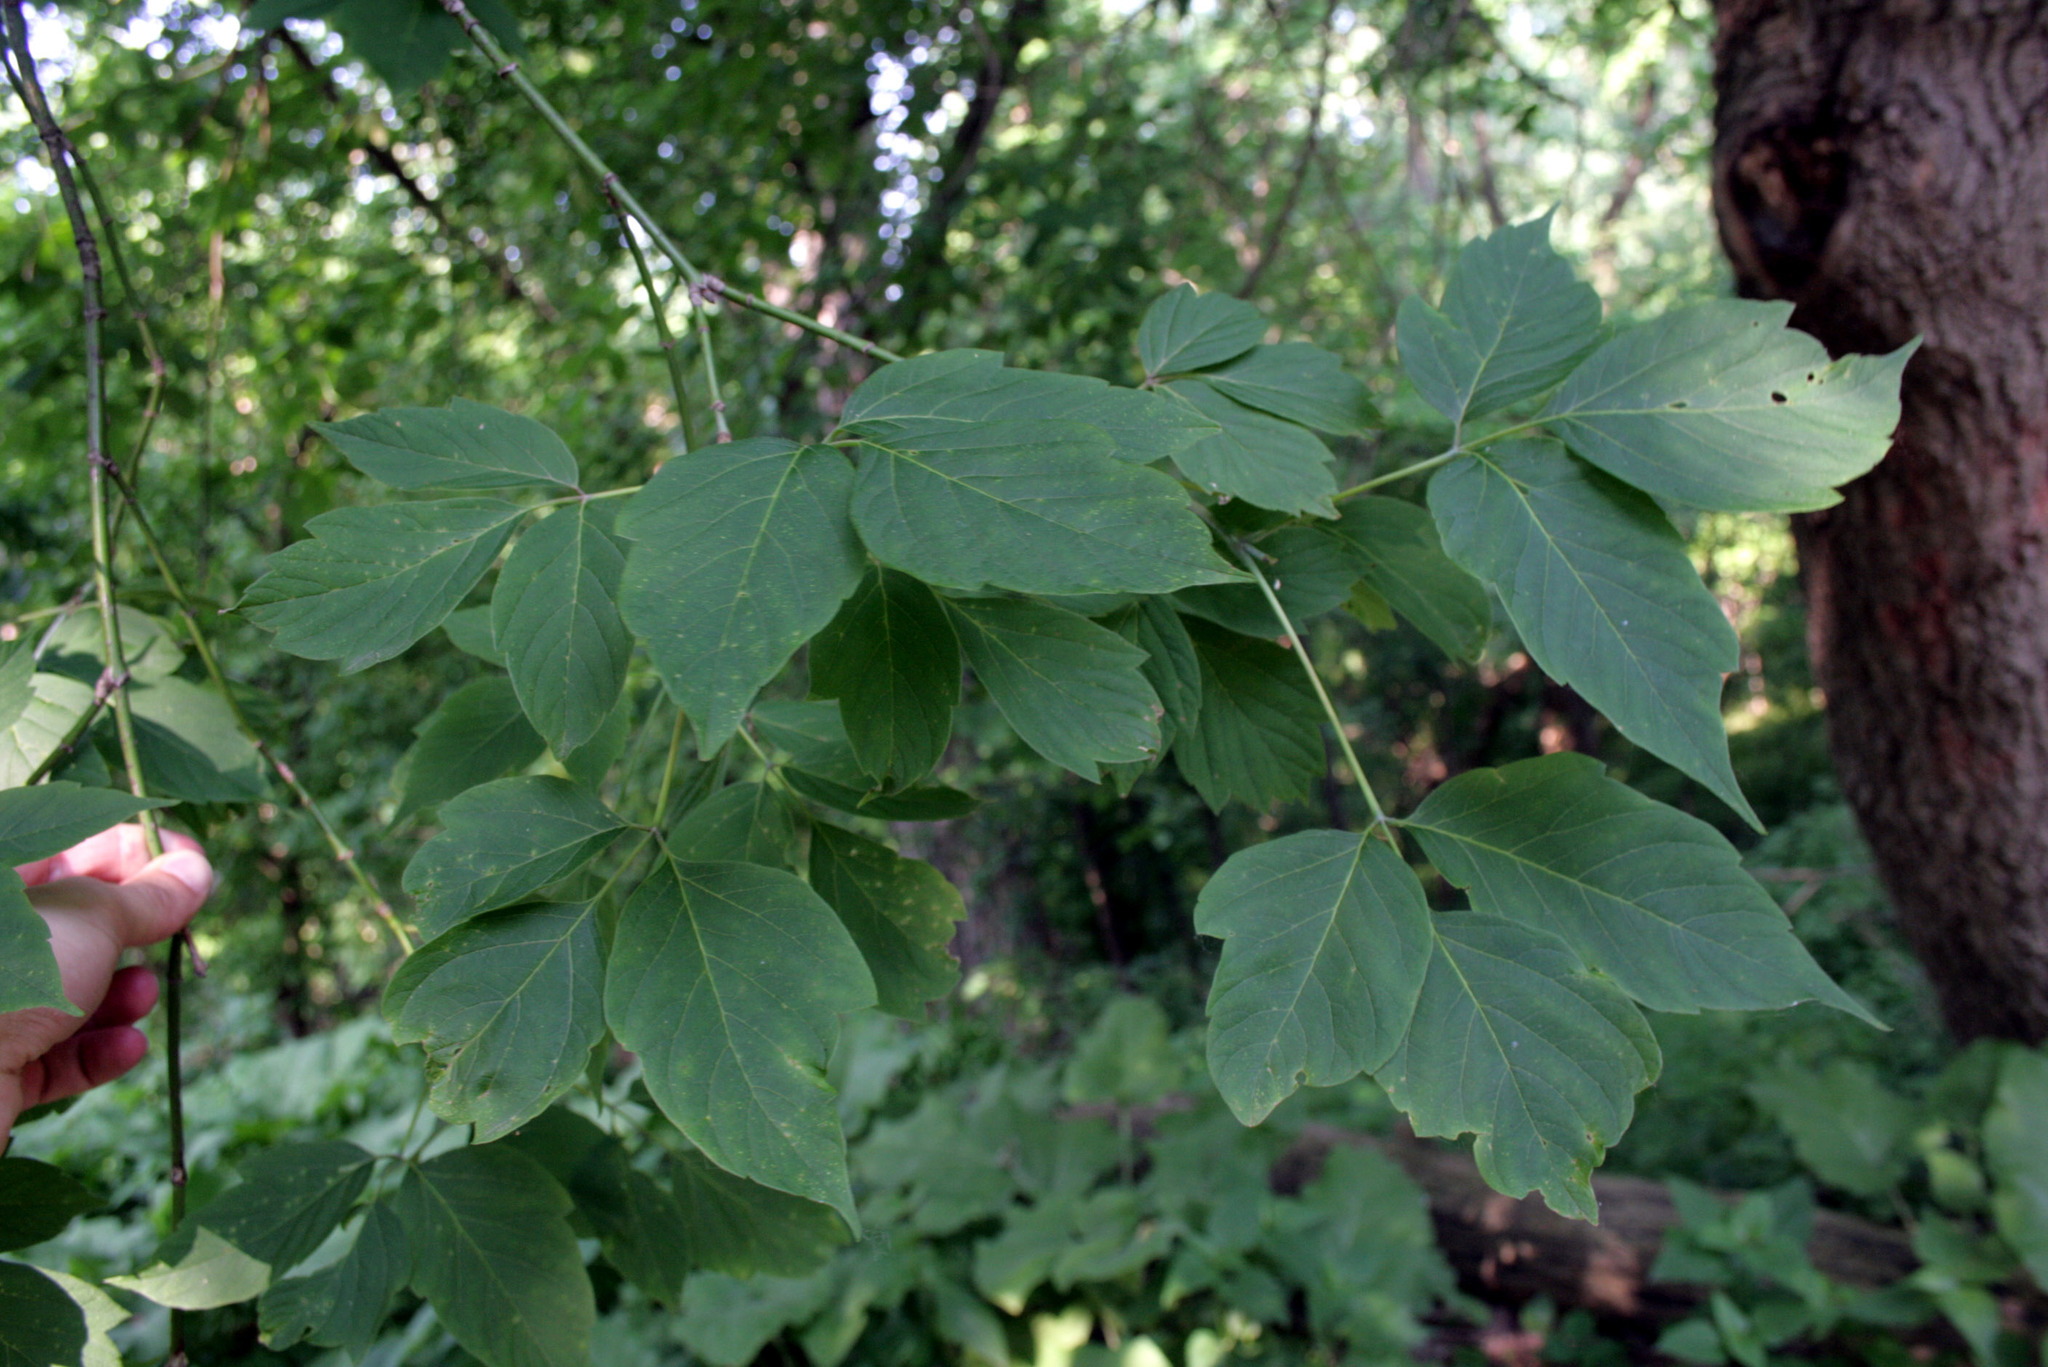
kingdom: Plantae
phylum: Tracheophyta
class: Magnoliopsida
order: Sapindales
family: Sapindaceae
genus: Acer
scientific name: Acer negundo
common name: Ashleaf maple
